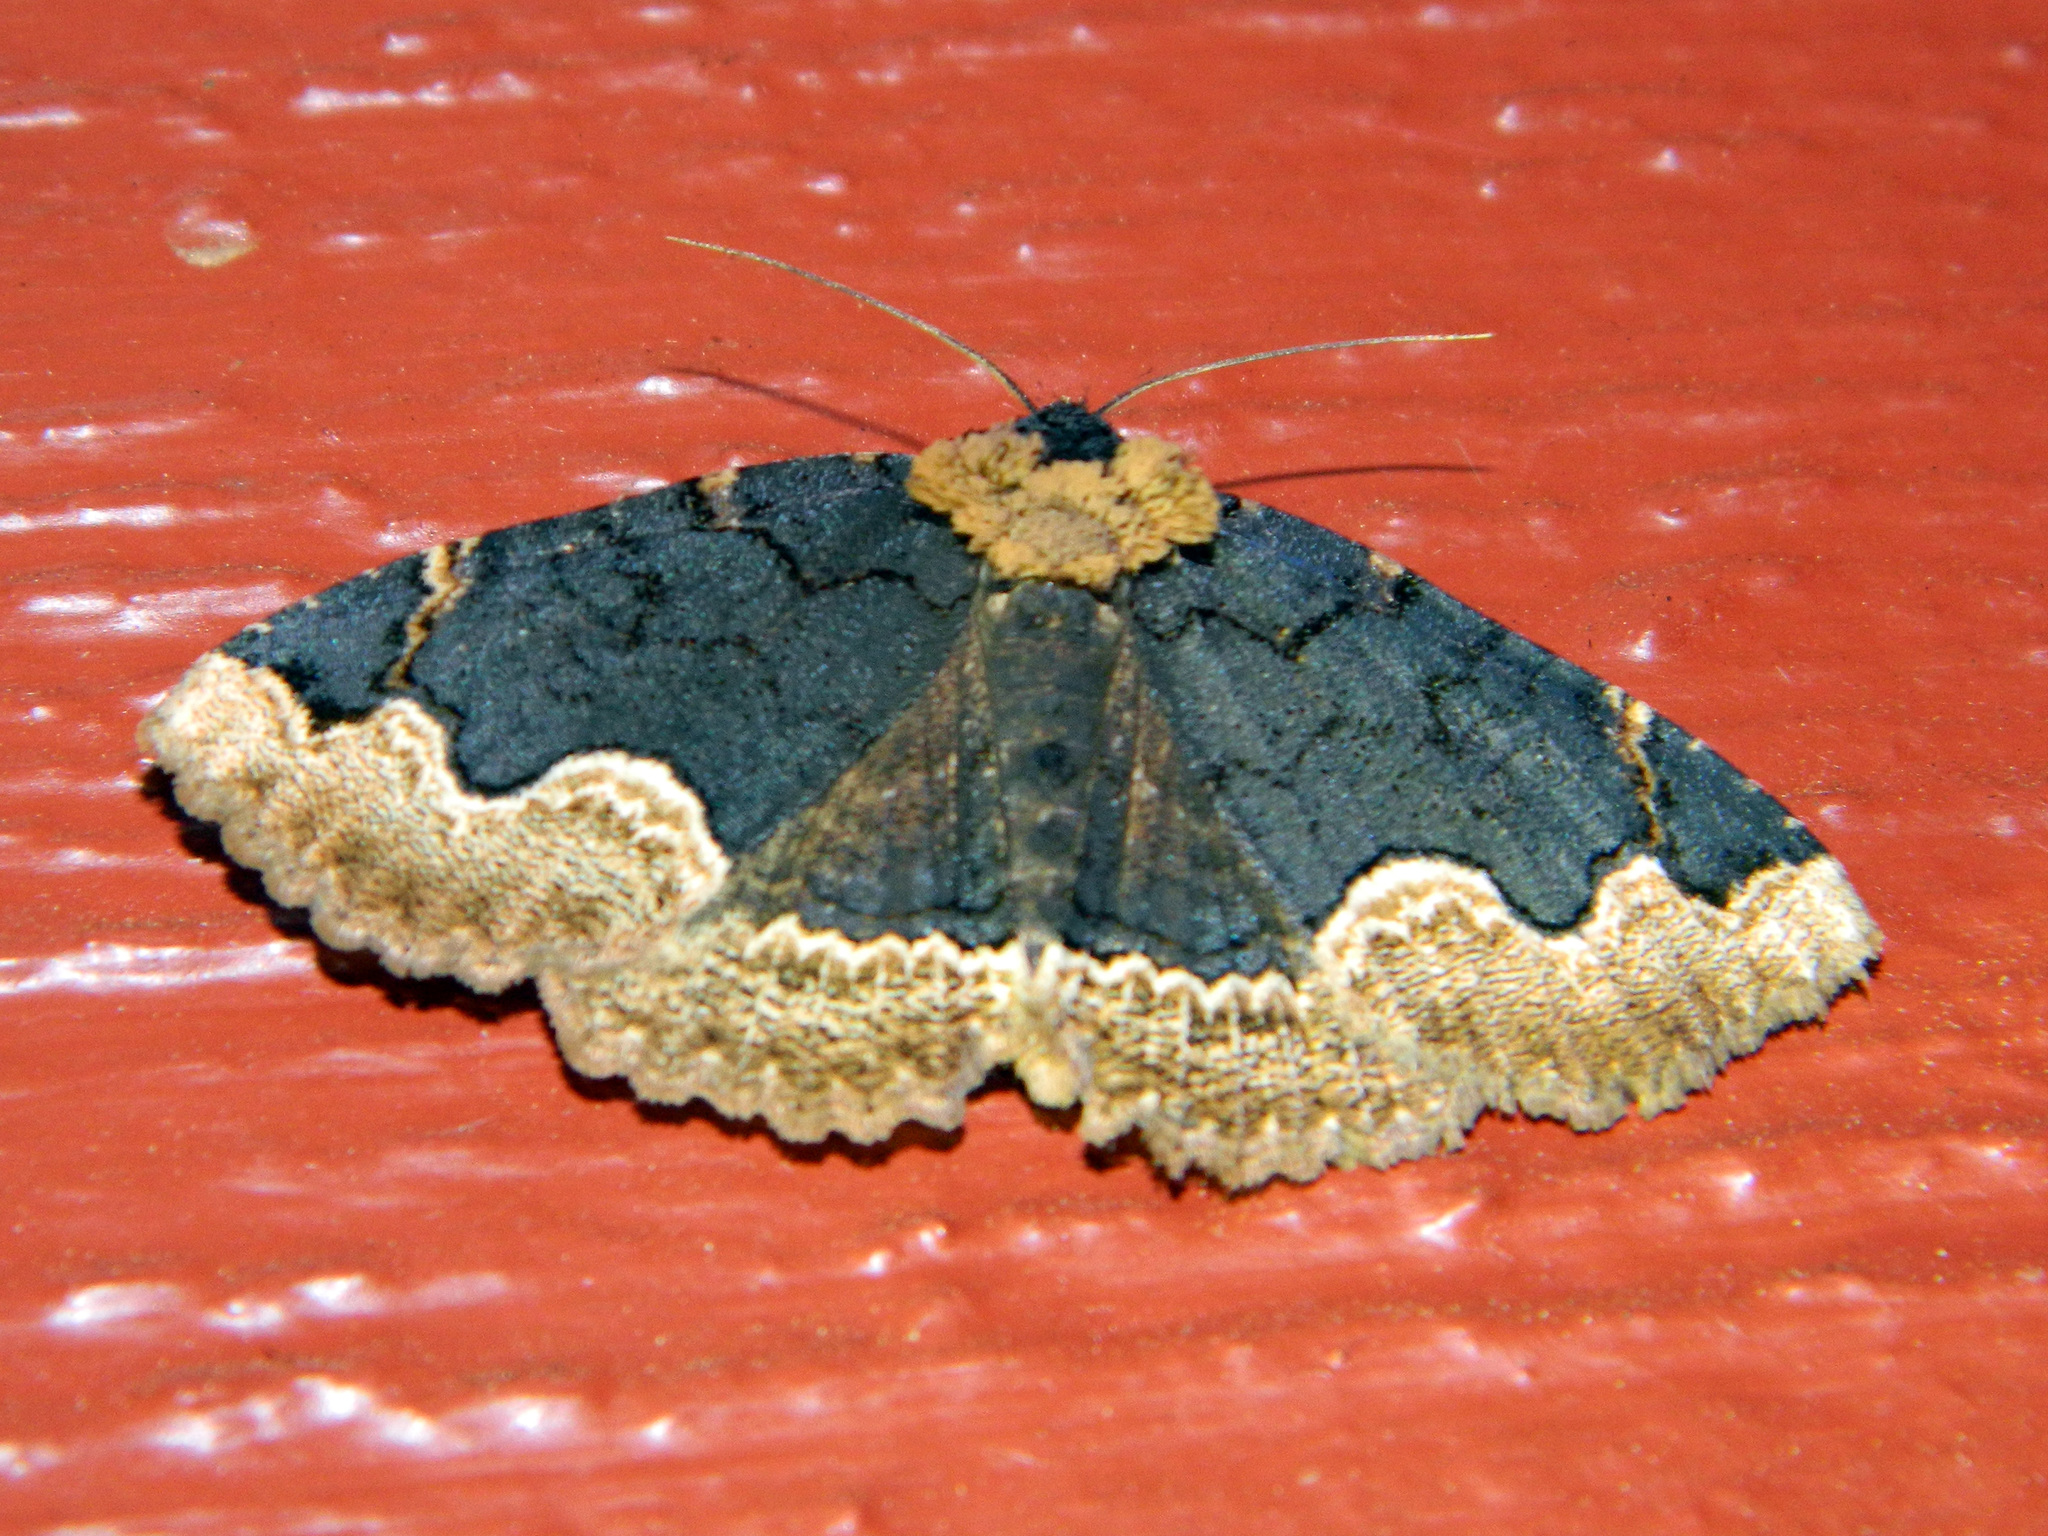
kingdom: Animalia
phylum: Arthropoda
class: Insecta
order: Lepidoptera
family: Erebidae
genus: Zale
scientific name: Zale horrida
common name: Horrid zale moth
